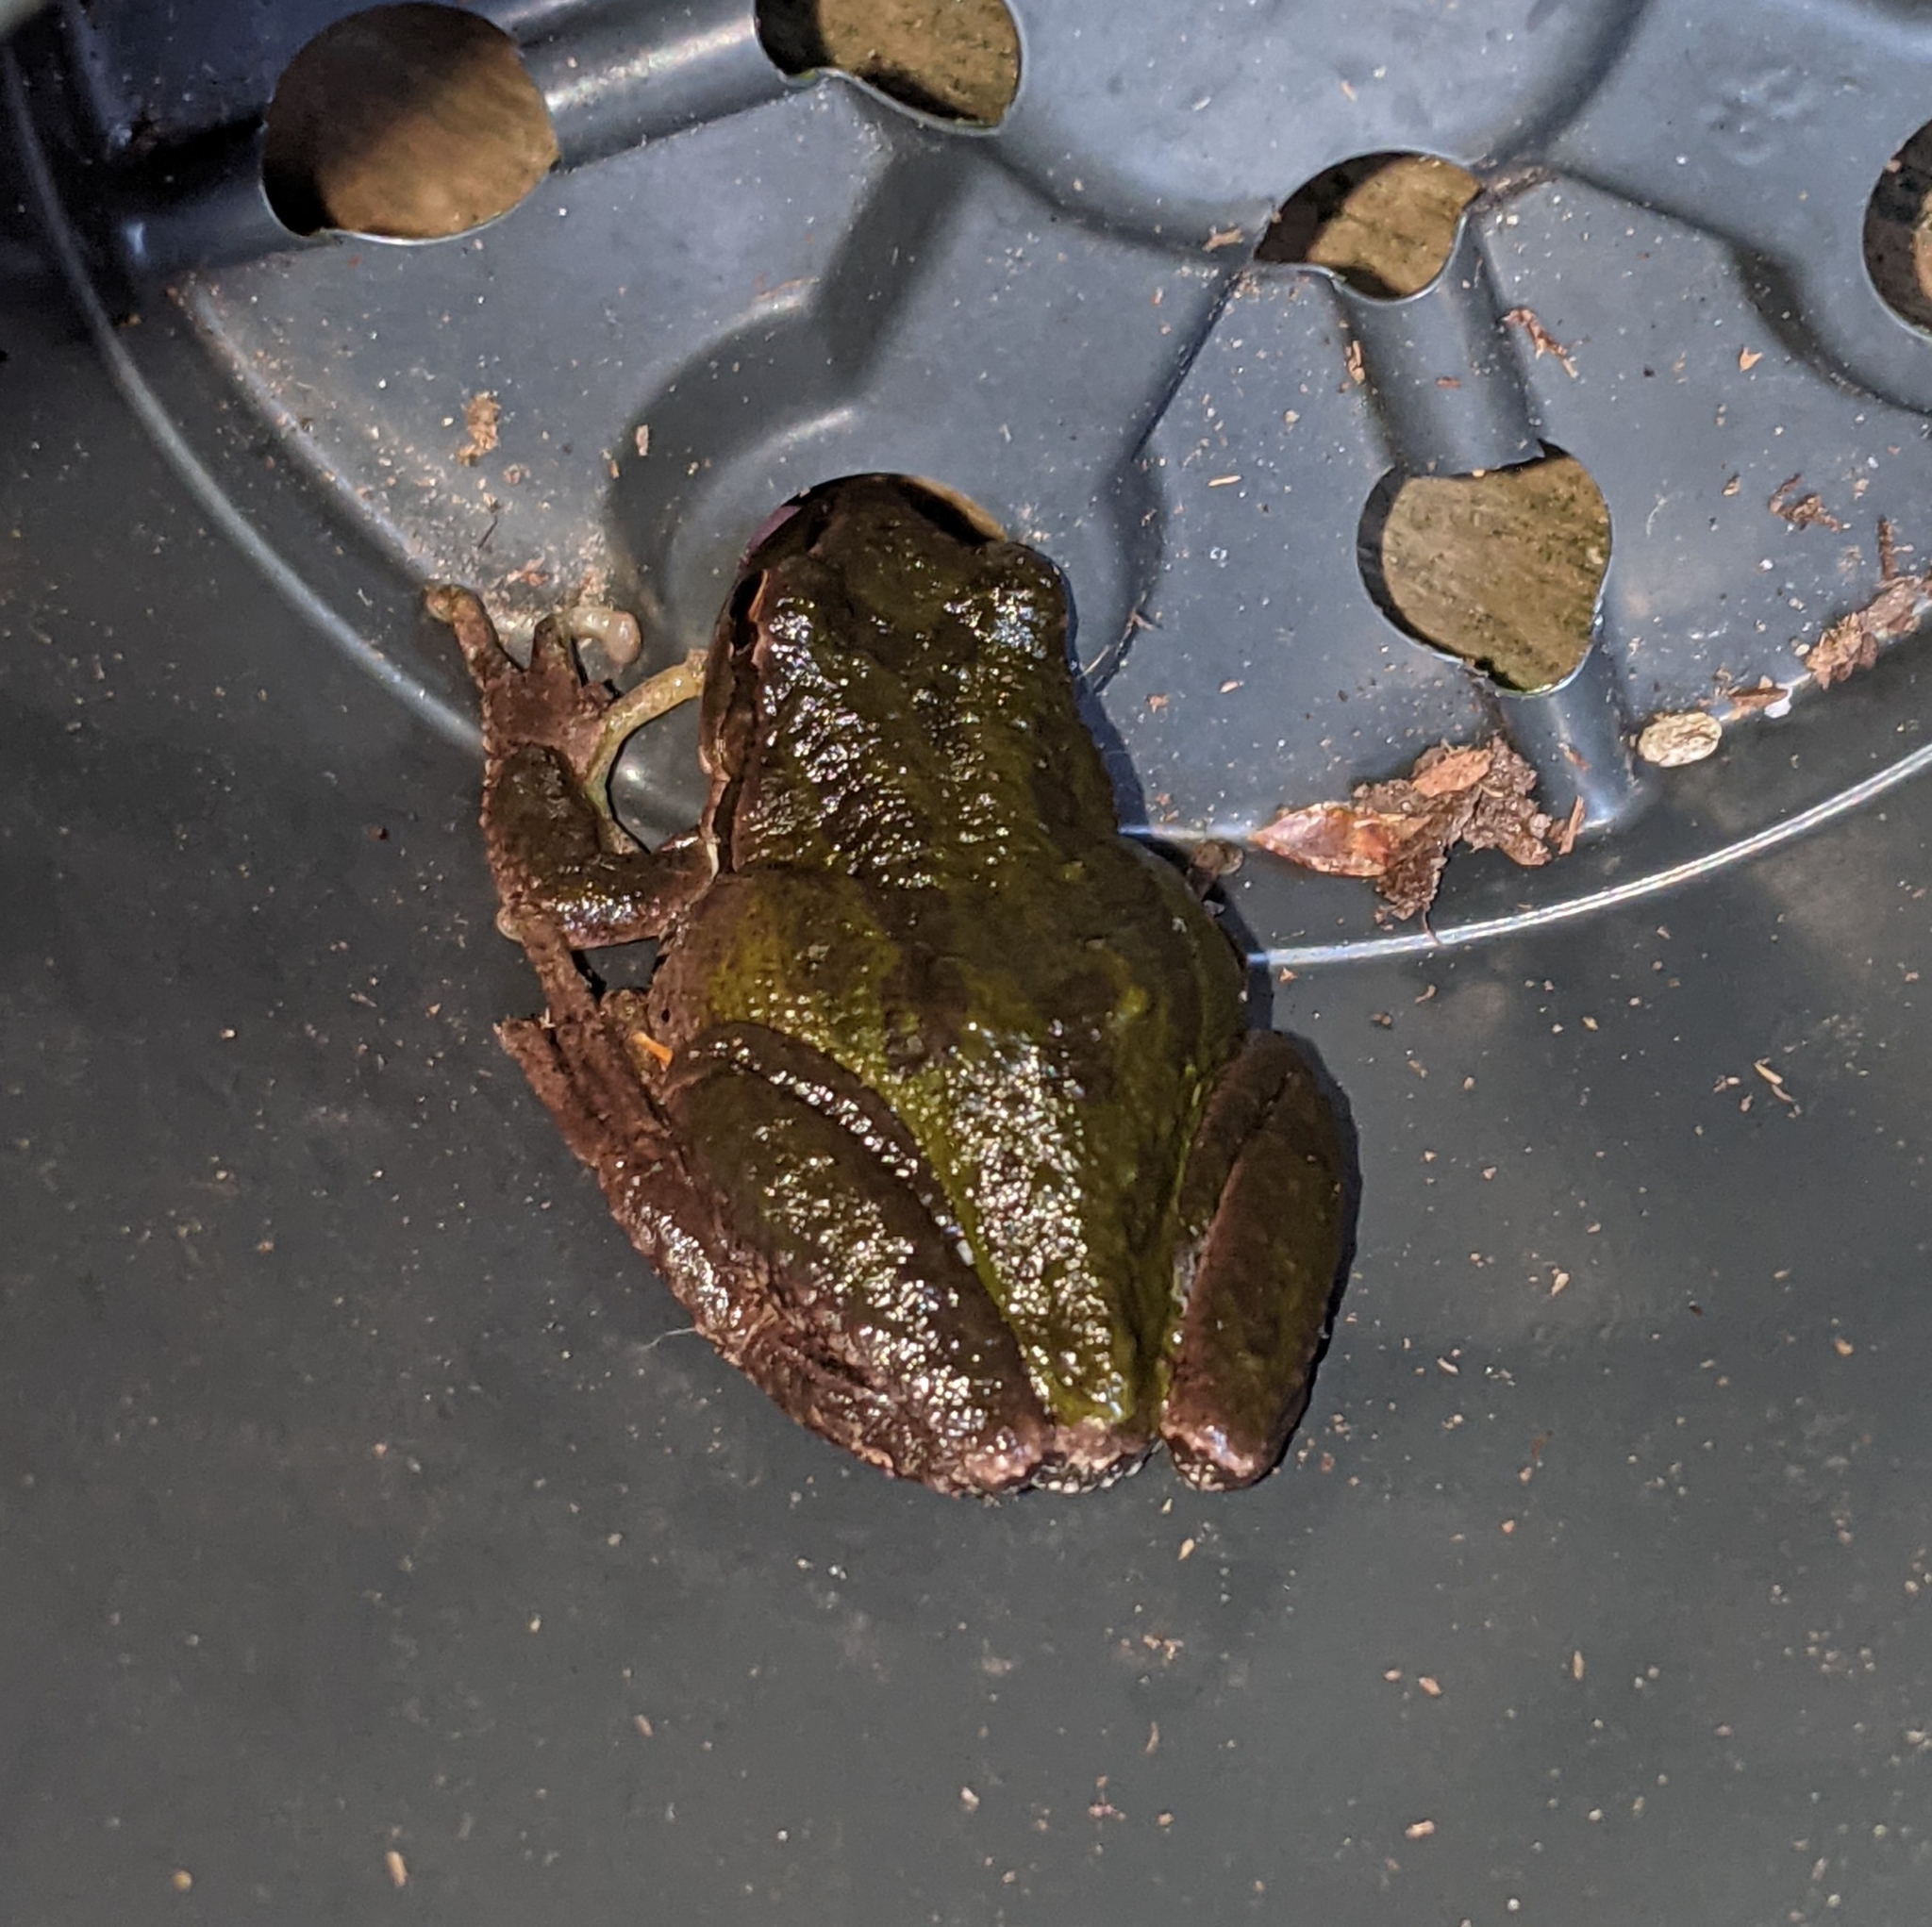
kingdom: Animalia
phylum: Chordata
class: Amphibia
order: Anura
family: Hylidae
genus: Pseudacris
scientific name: Pseudacris regilla
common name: Pacific chorus frog
